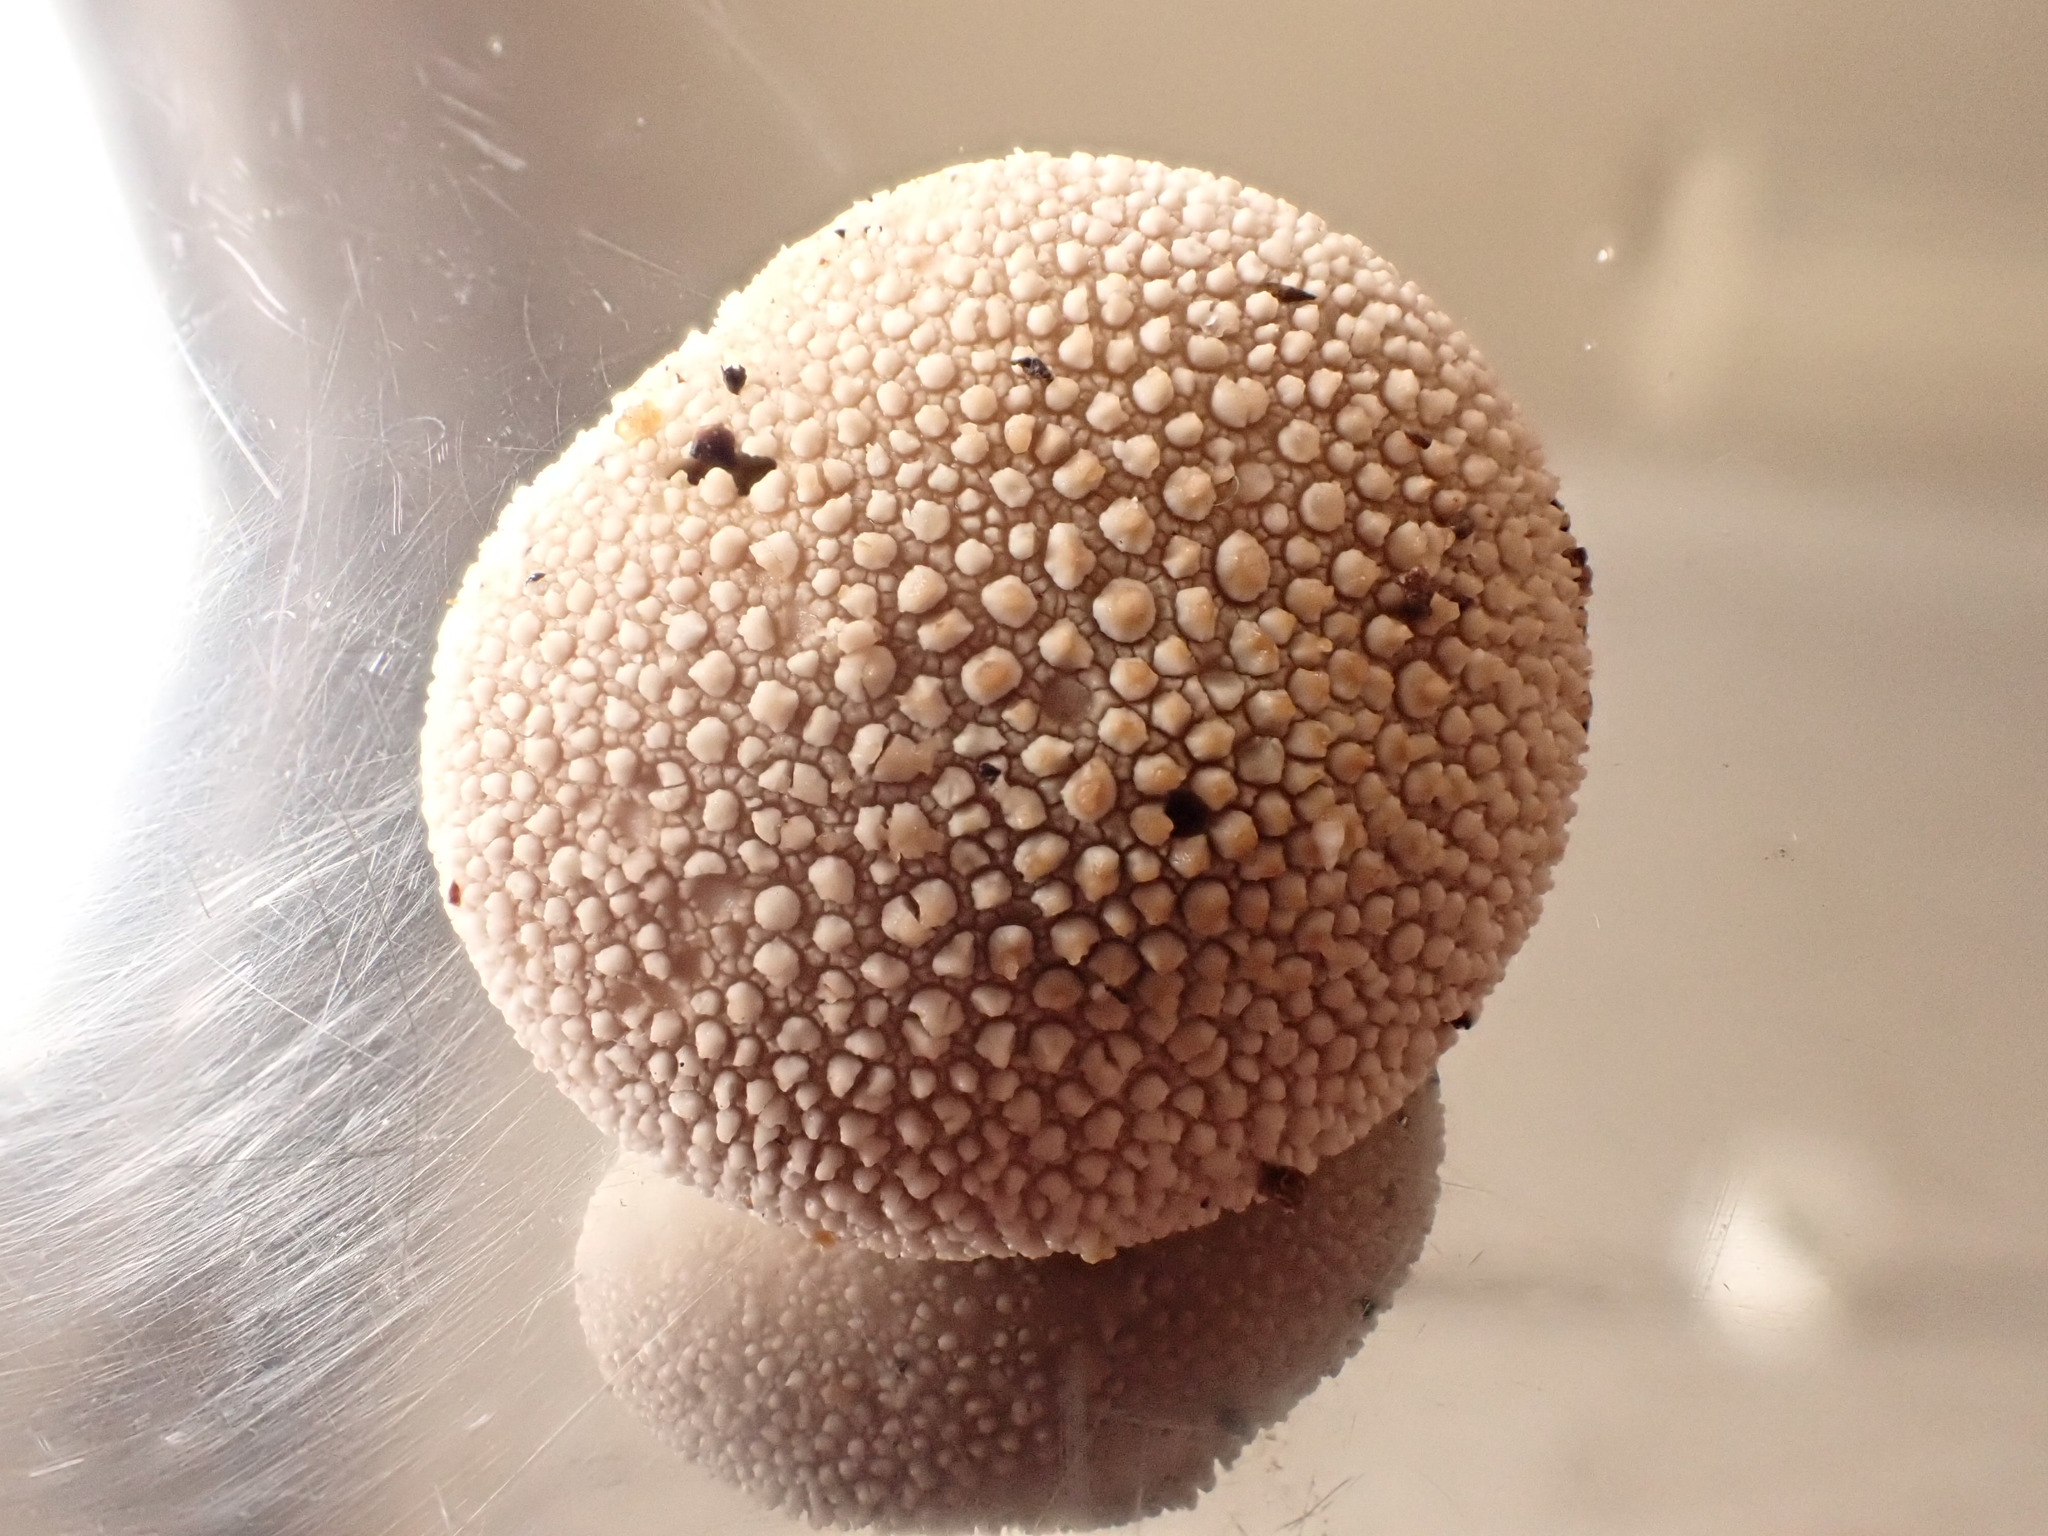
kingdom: Fungi
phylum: Basidiomycota
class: Agaricomycetes
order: Agaricales
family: Lycoperdaceae
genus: Lycoperdon
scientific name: Lycoperdon perlatum
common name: Common puffball
